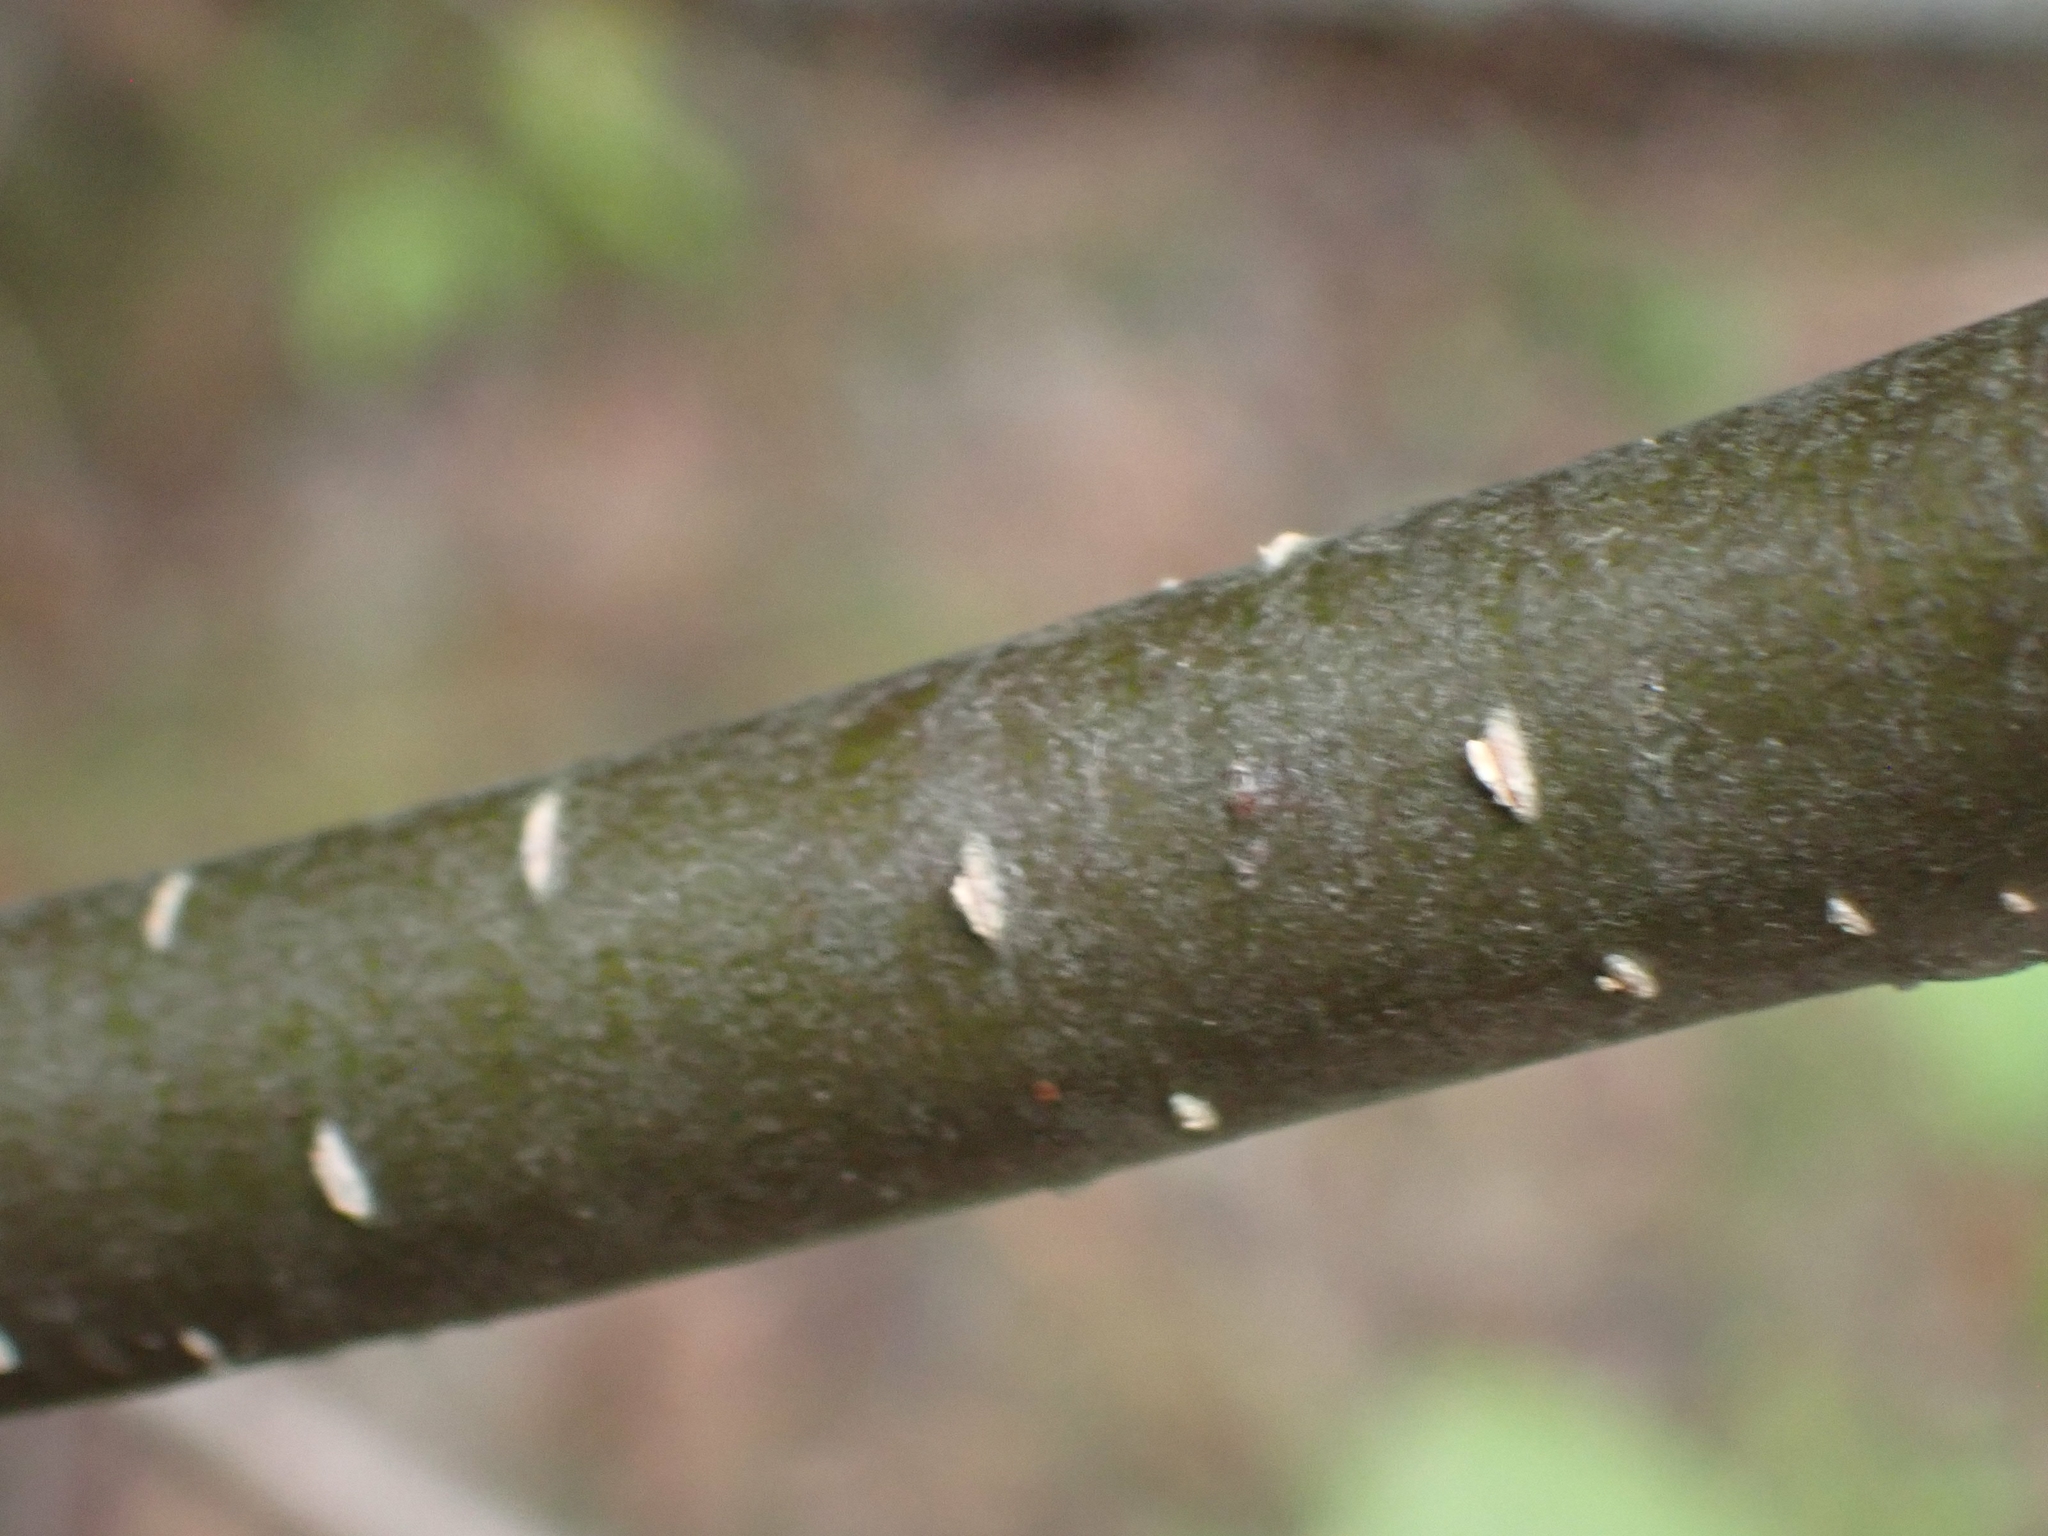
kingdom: Plantae
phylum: Tracheophyta
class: Magnoliopsida
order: Fagales
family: Betulaceae
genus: Alnus
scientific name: Alnus incana
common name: Grey alder
